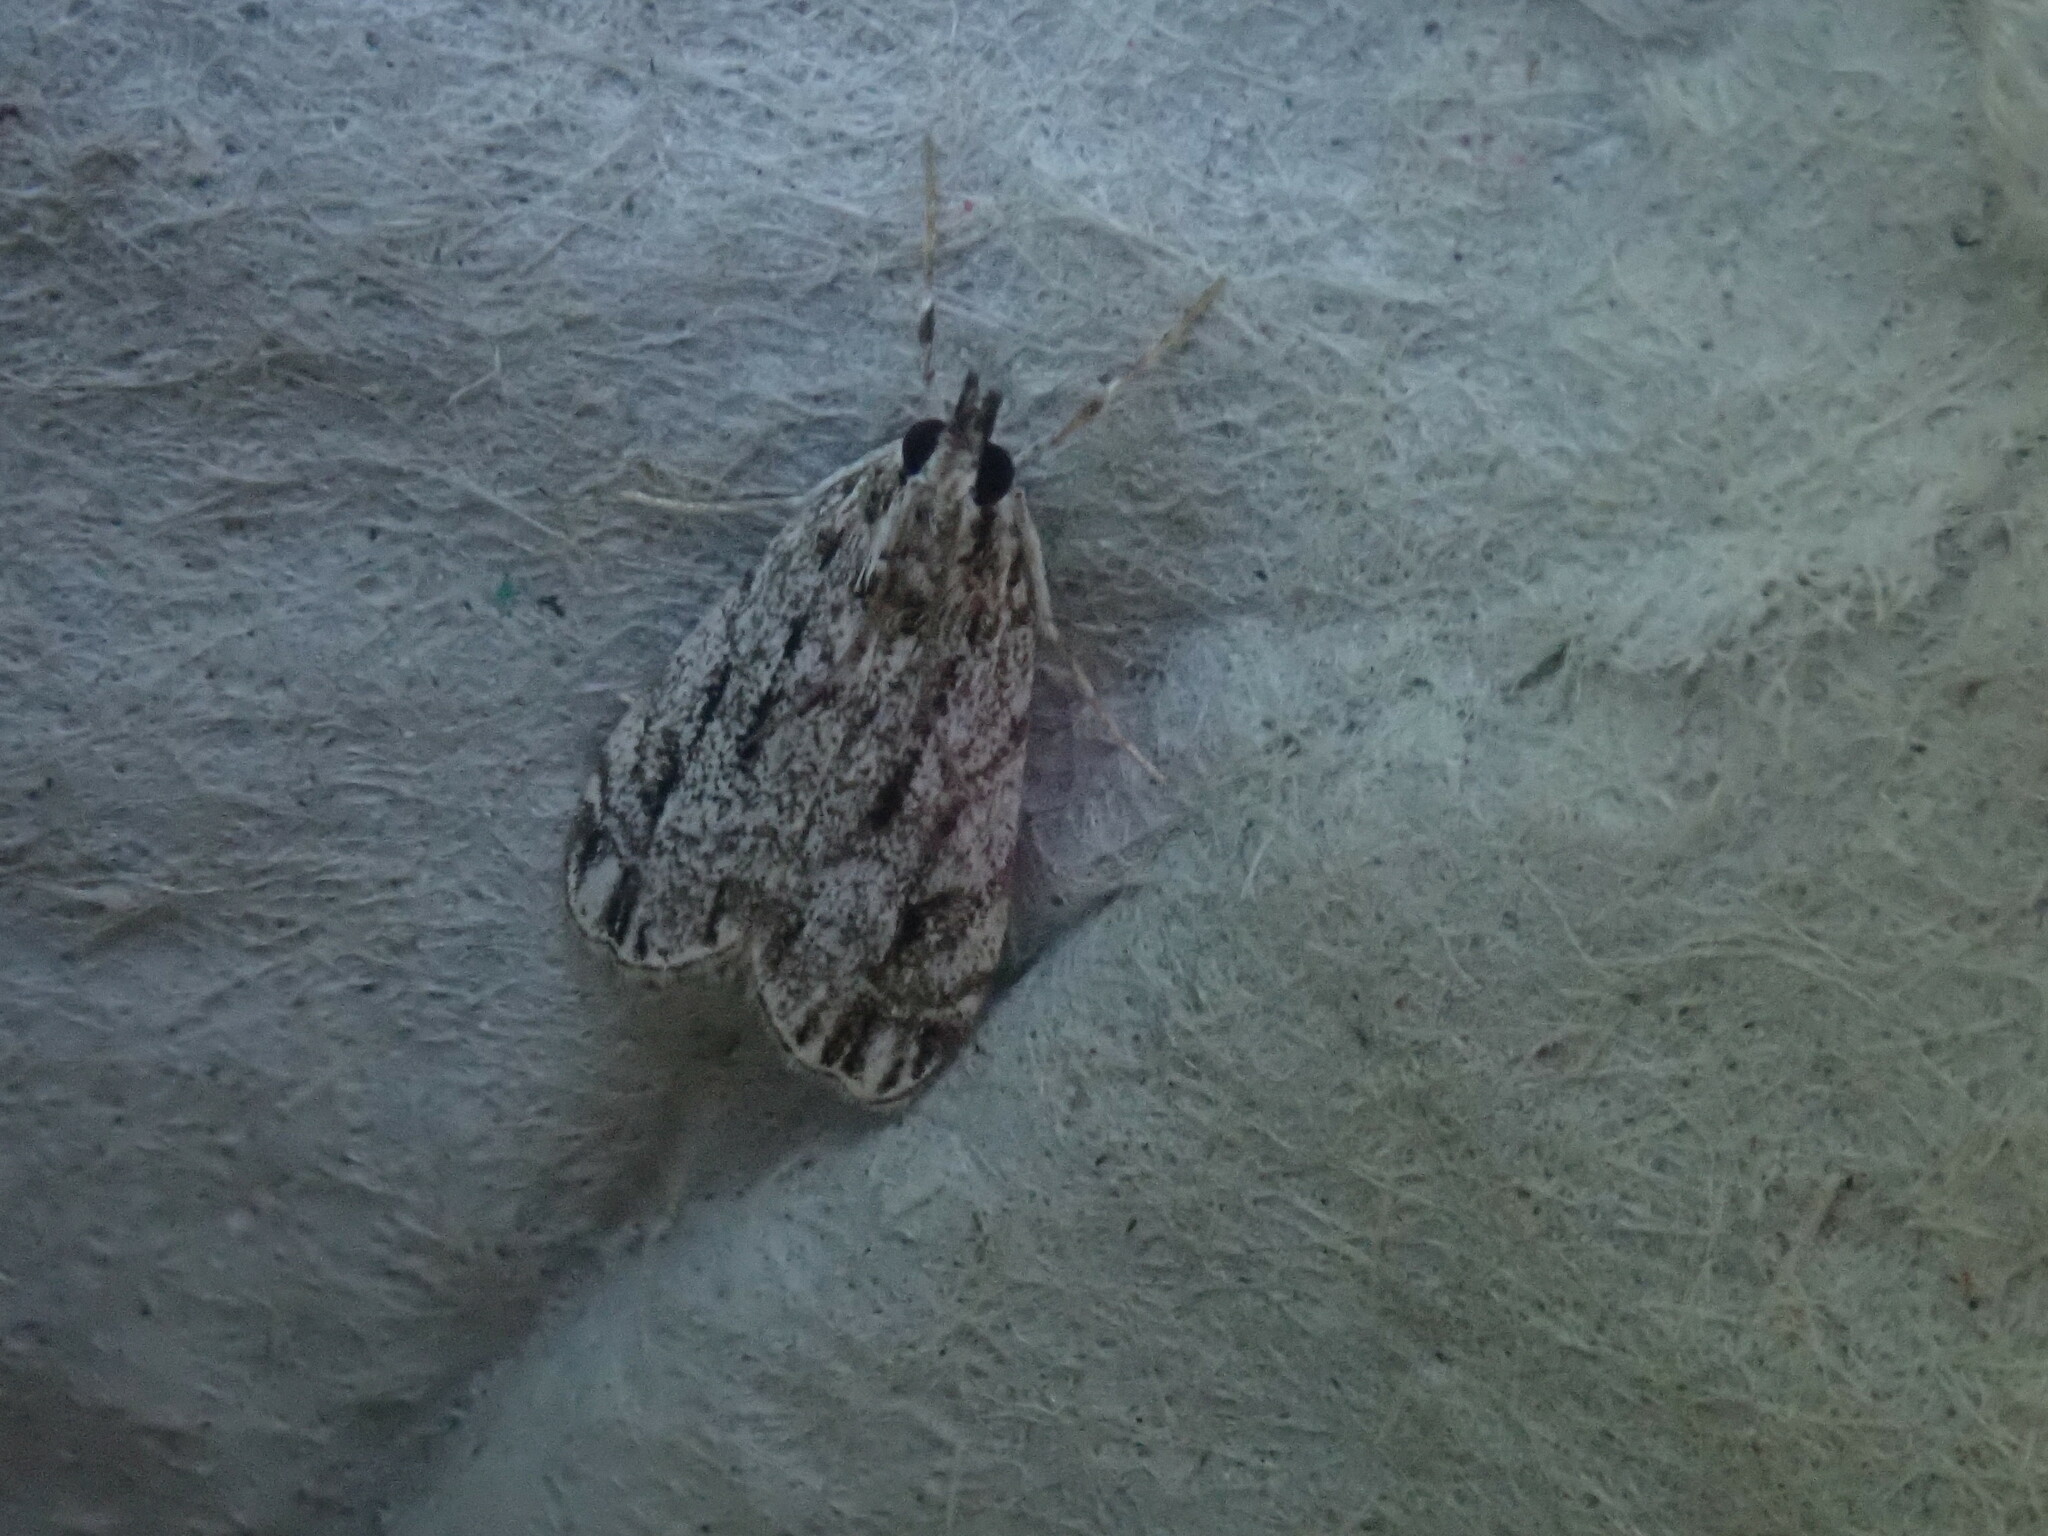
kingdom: Animalia
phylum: Arthropoda
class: Insecta
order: Lepidoptera
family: Crambidae
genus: Eudonia
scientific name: Eudonia strigalis
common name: Striped eudonia moth
